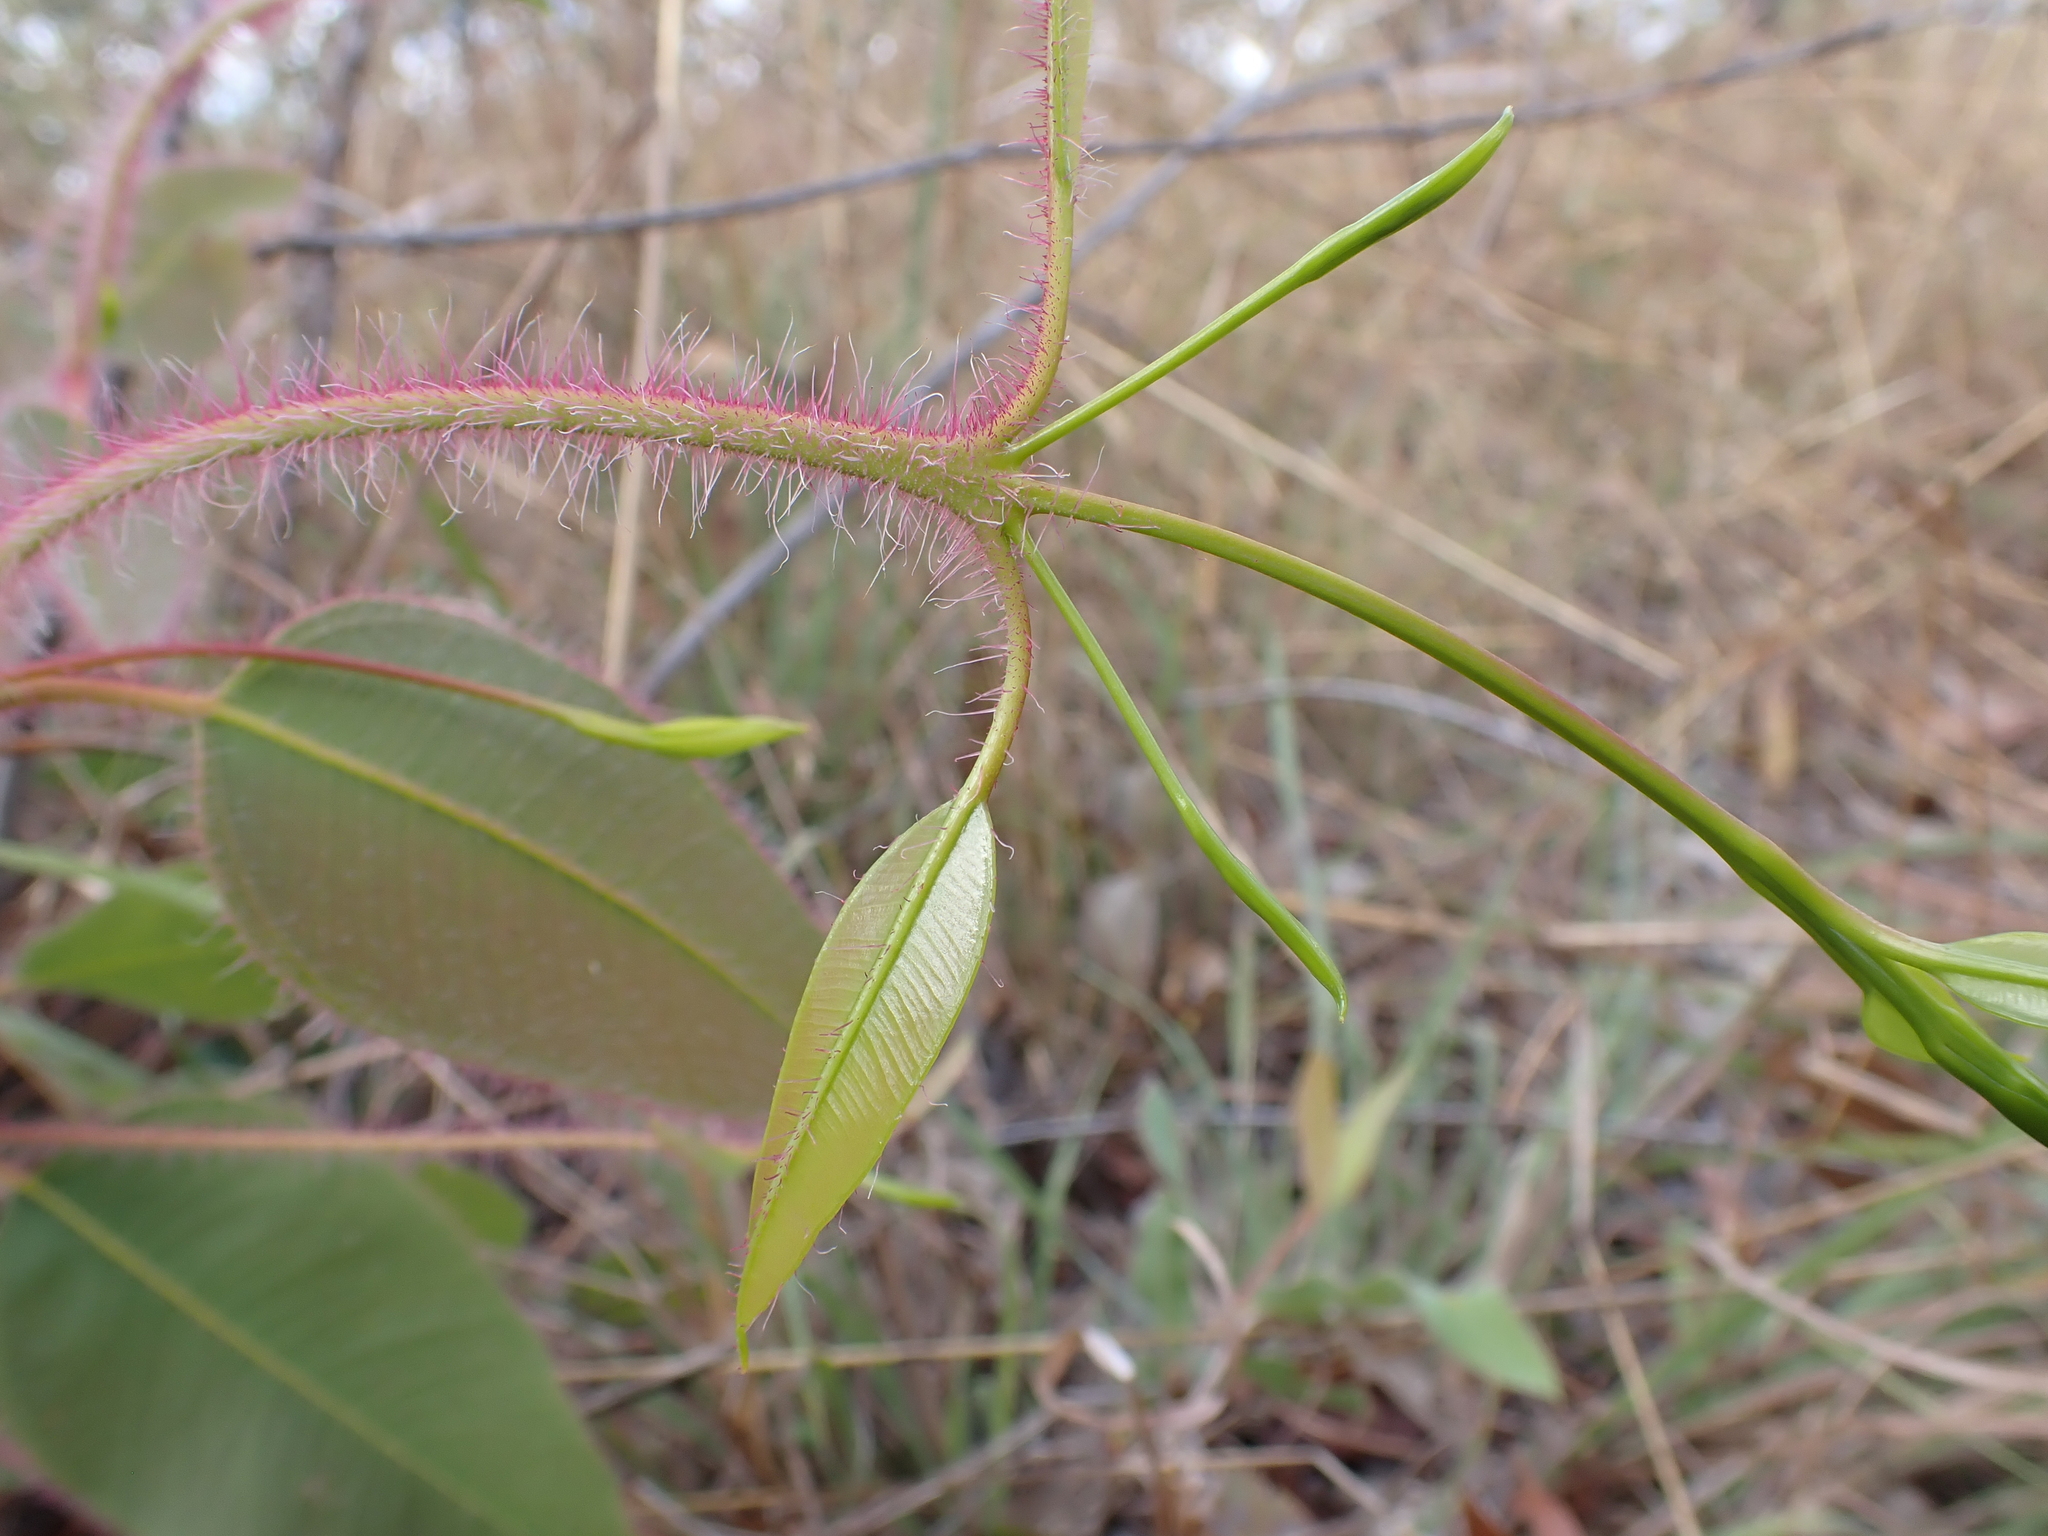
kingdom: Plantae
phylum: Tracheophyta
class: Magnoliopsida
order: Myrtales
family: Myrtaceae
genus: Corymbia
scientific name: Corymbia bleeseri
